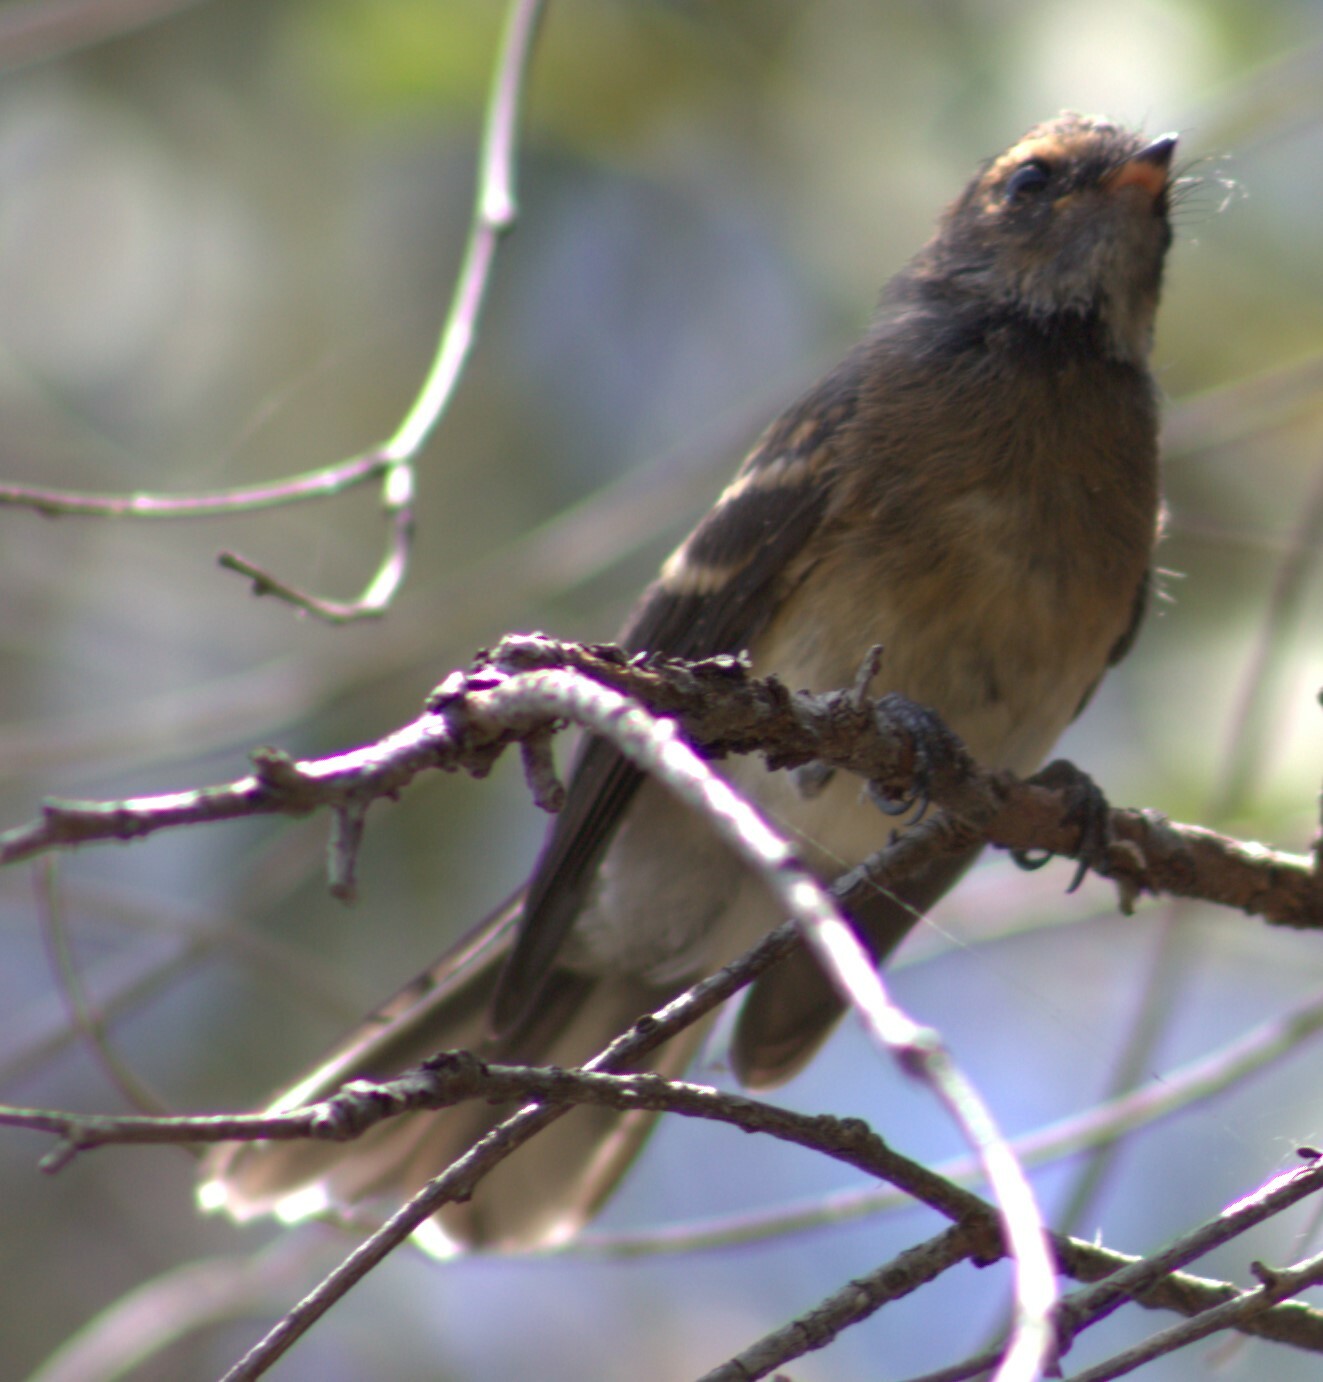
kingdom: Animalia
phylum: Chordata
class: Aves
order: Passeriformes
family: Rhipiduridae
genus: Rhipidura
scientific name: Rhipidura albiscapa
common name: Grey fantail
